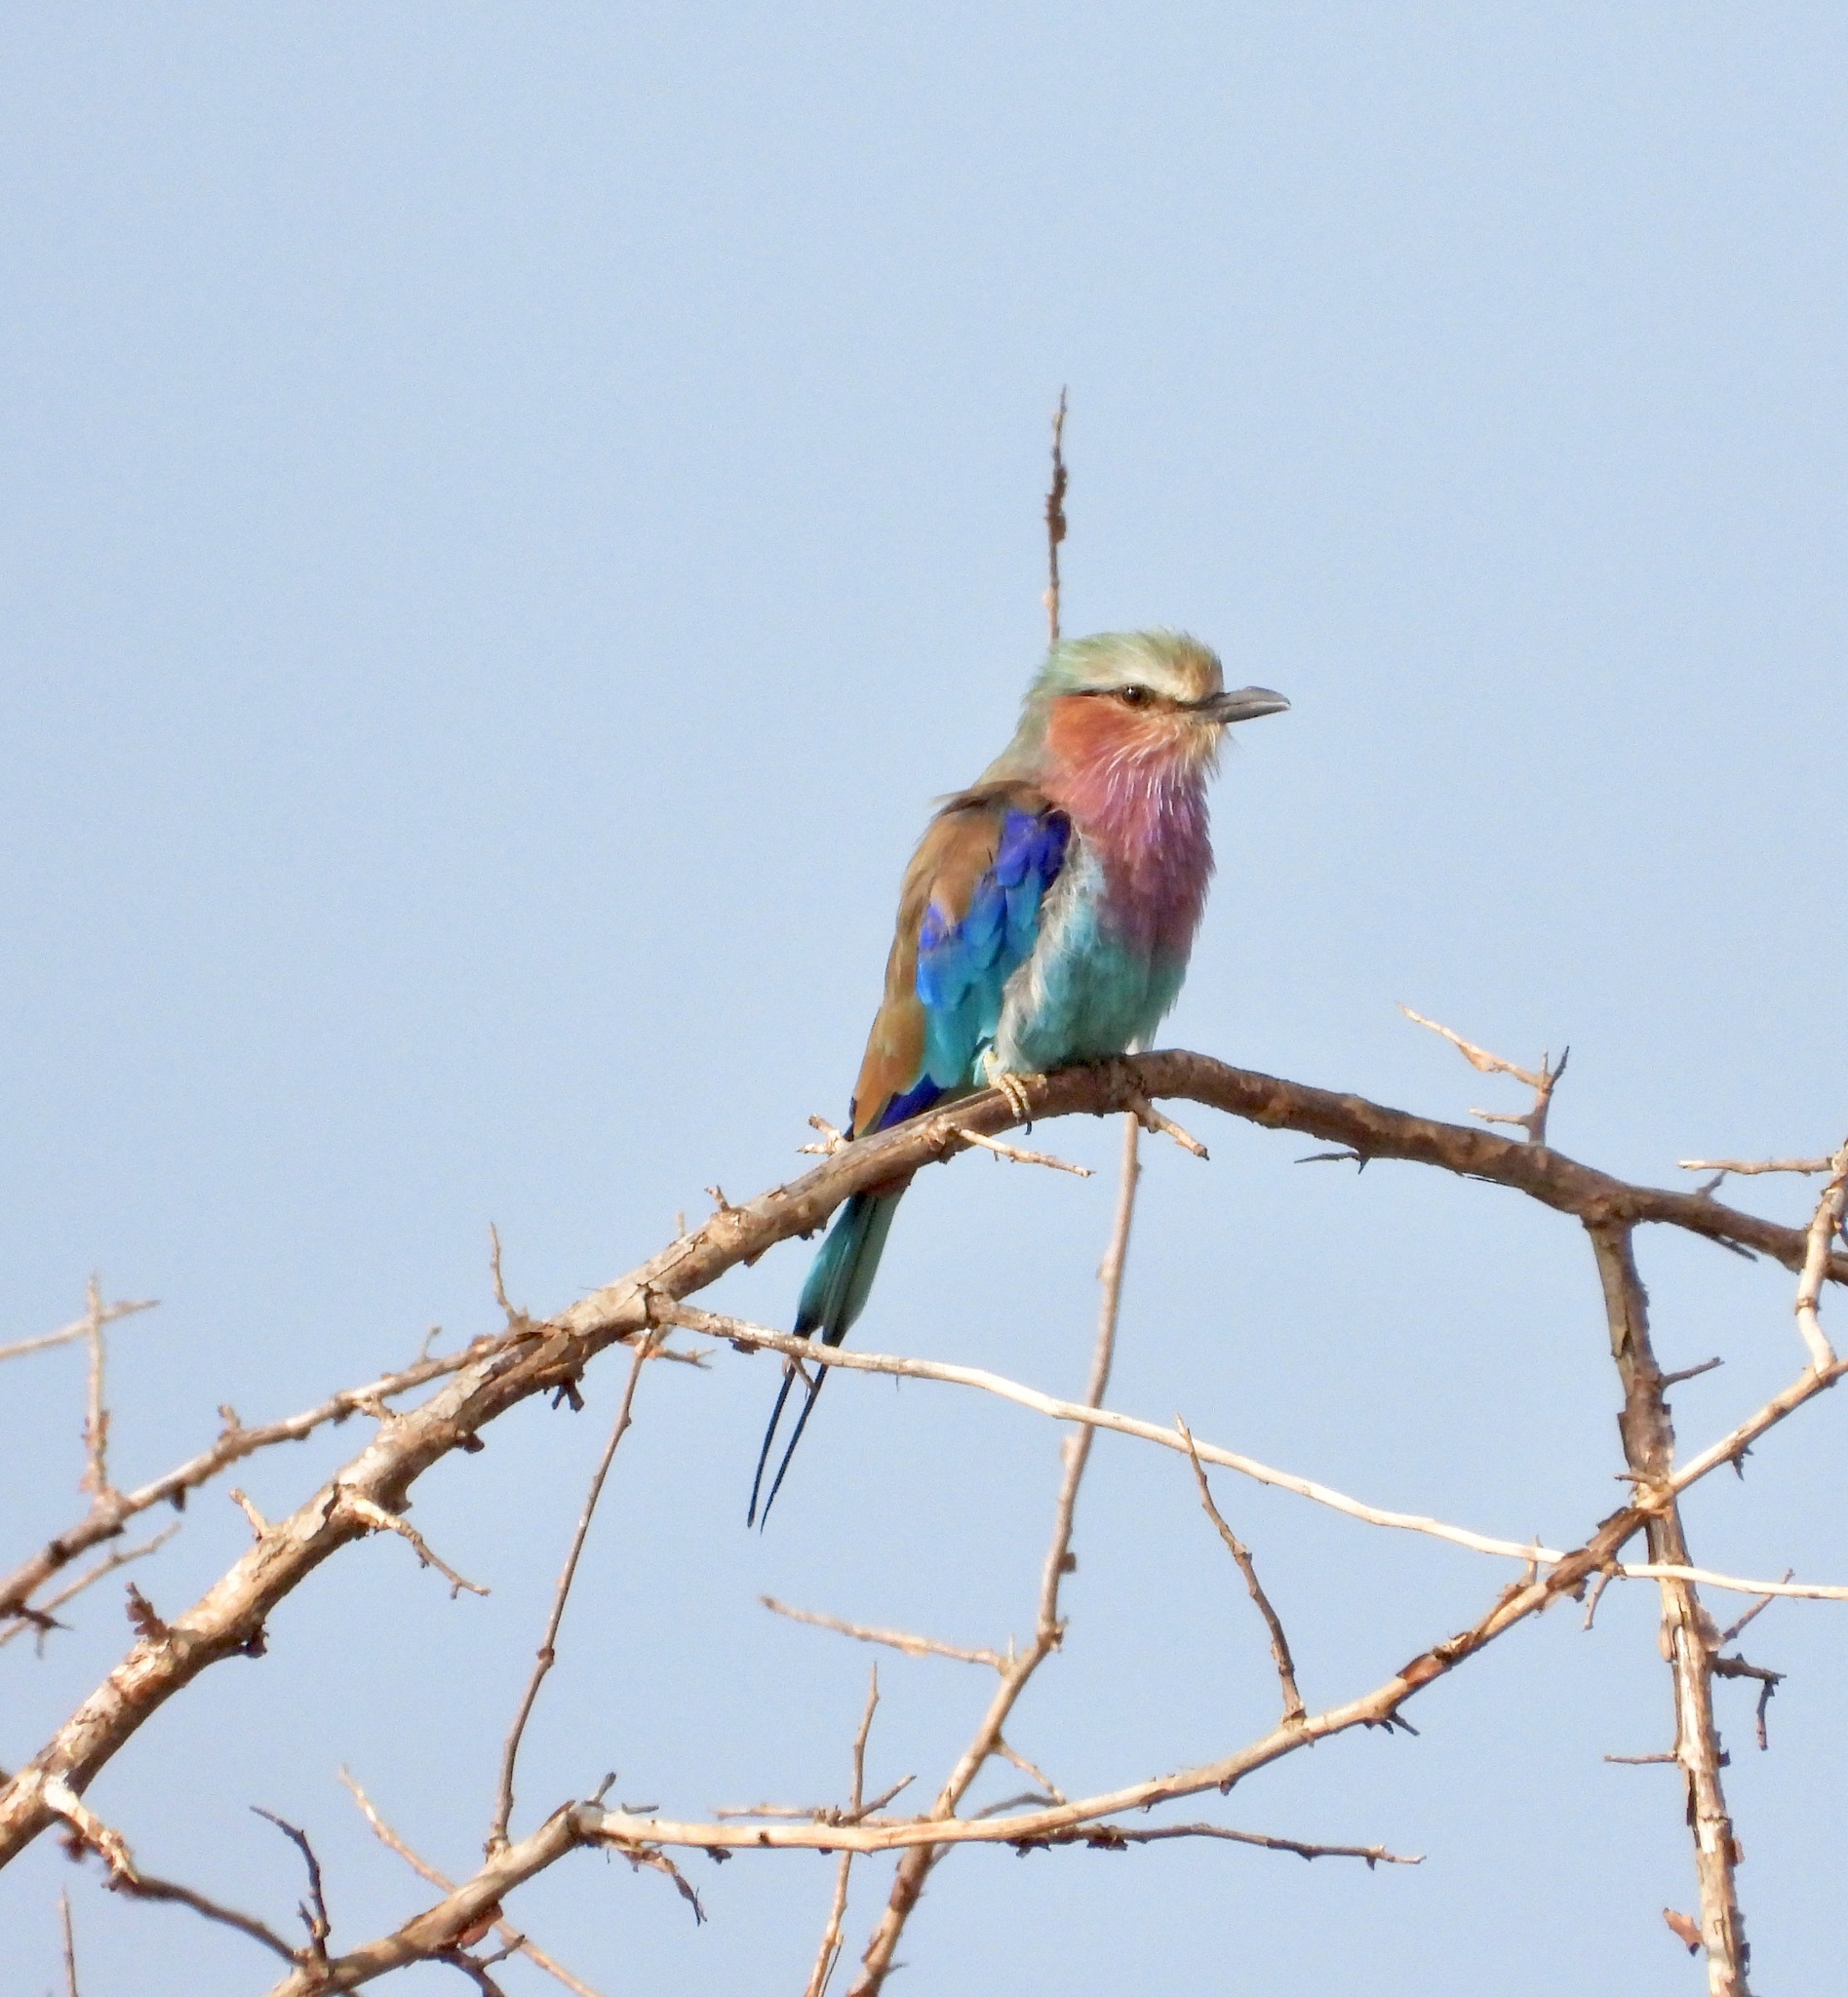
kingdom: Animalia
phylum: Chordata
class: Aves
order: Coraciiformes
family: Coraciidae
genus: Coracias
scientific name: Coracias caudatus
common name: Lilac-breasted roller
